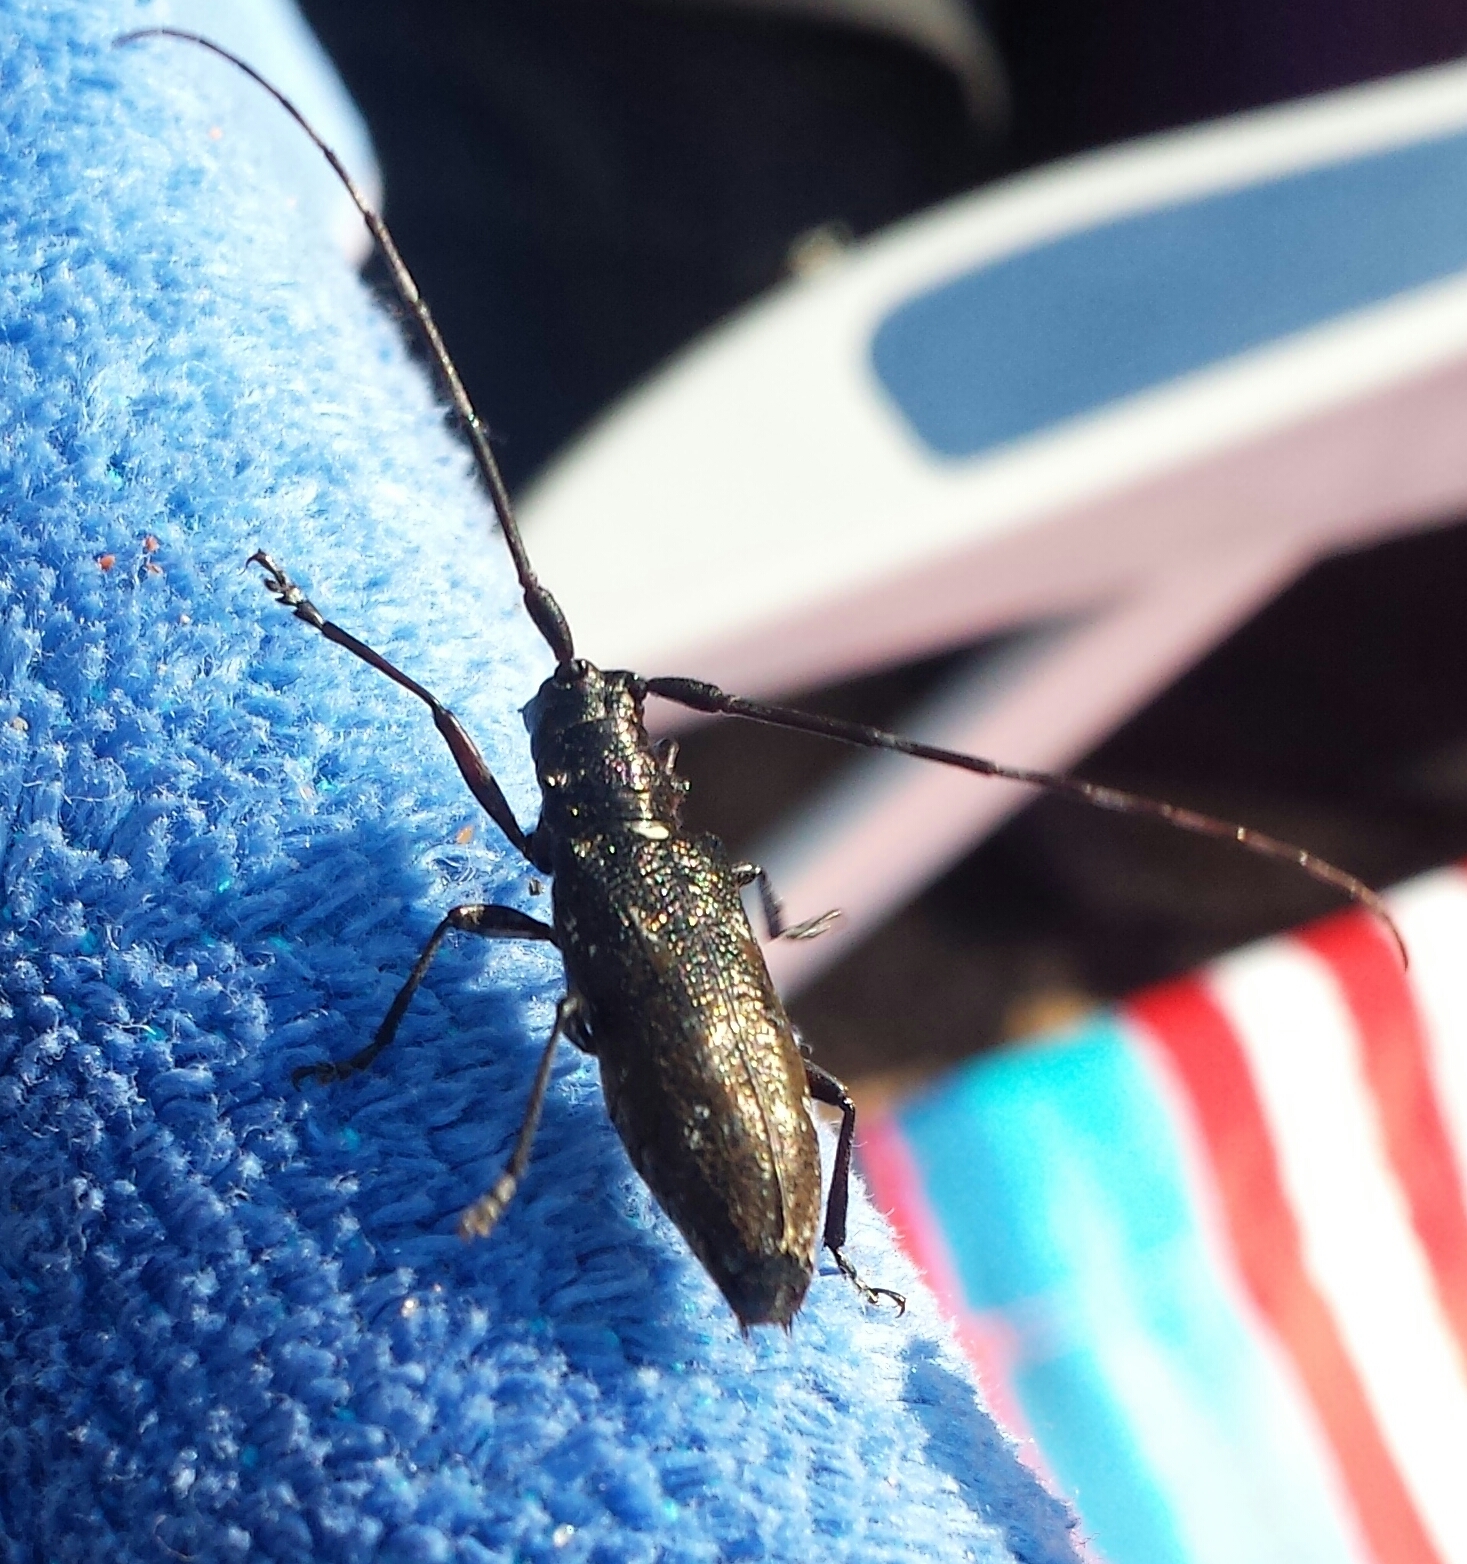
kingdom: Animalia
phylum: Arthropoda
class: Insecta
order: Coleoptera
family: Cerambycidae
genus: Monochamus
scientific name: Monochamus scutellatus
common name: White-spotted sawyer beetle
